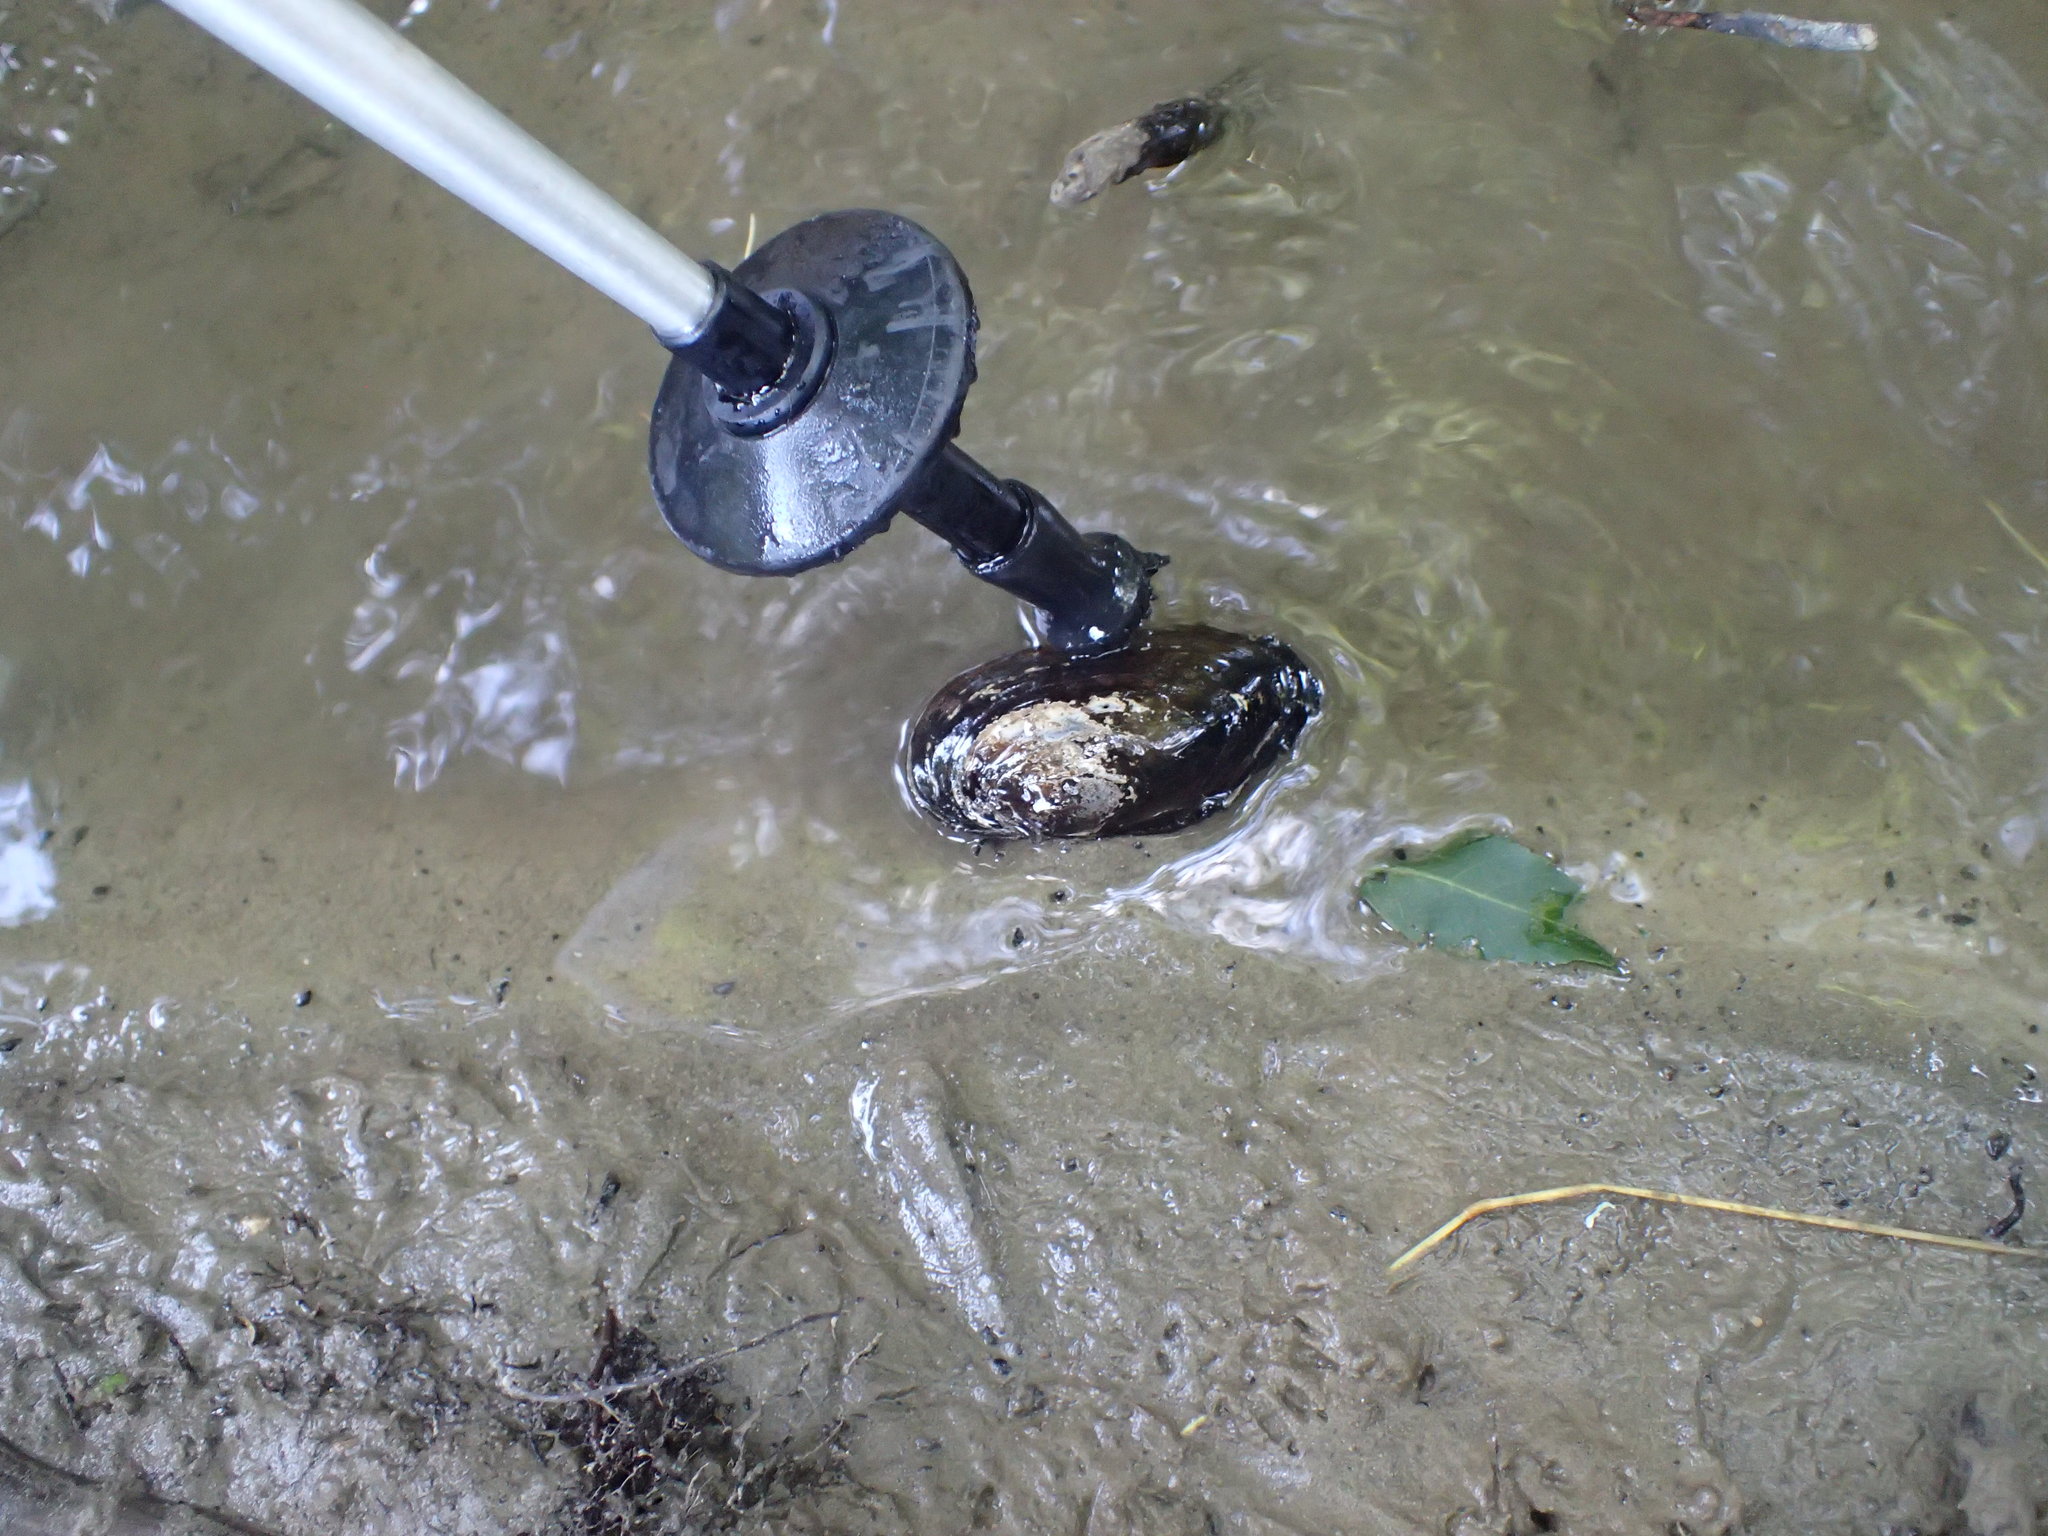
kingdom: Animalia
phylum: Mollusca
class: Bivalvia
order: Unionida
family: Unionidae
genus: Anodonta
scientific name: Anodonta anatina
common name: Duck mussel
